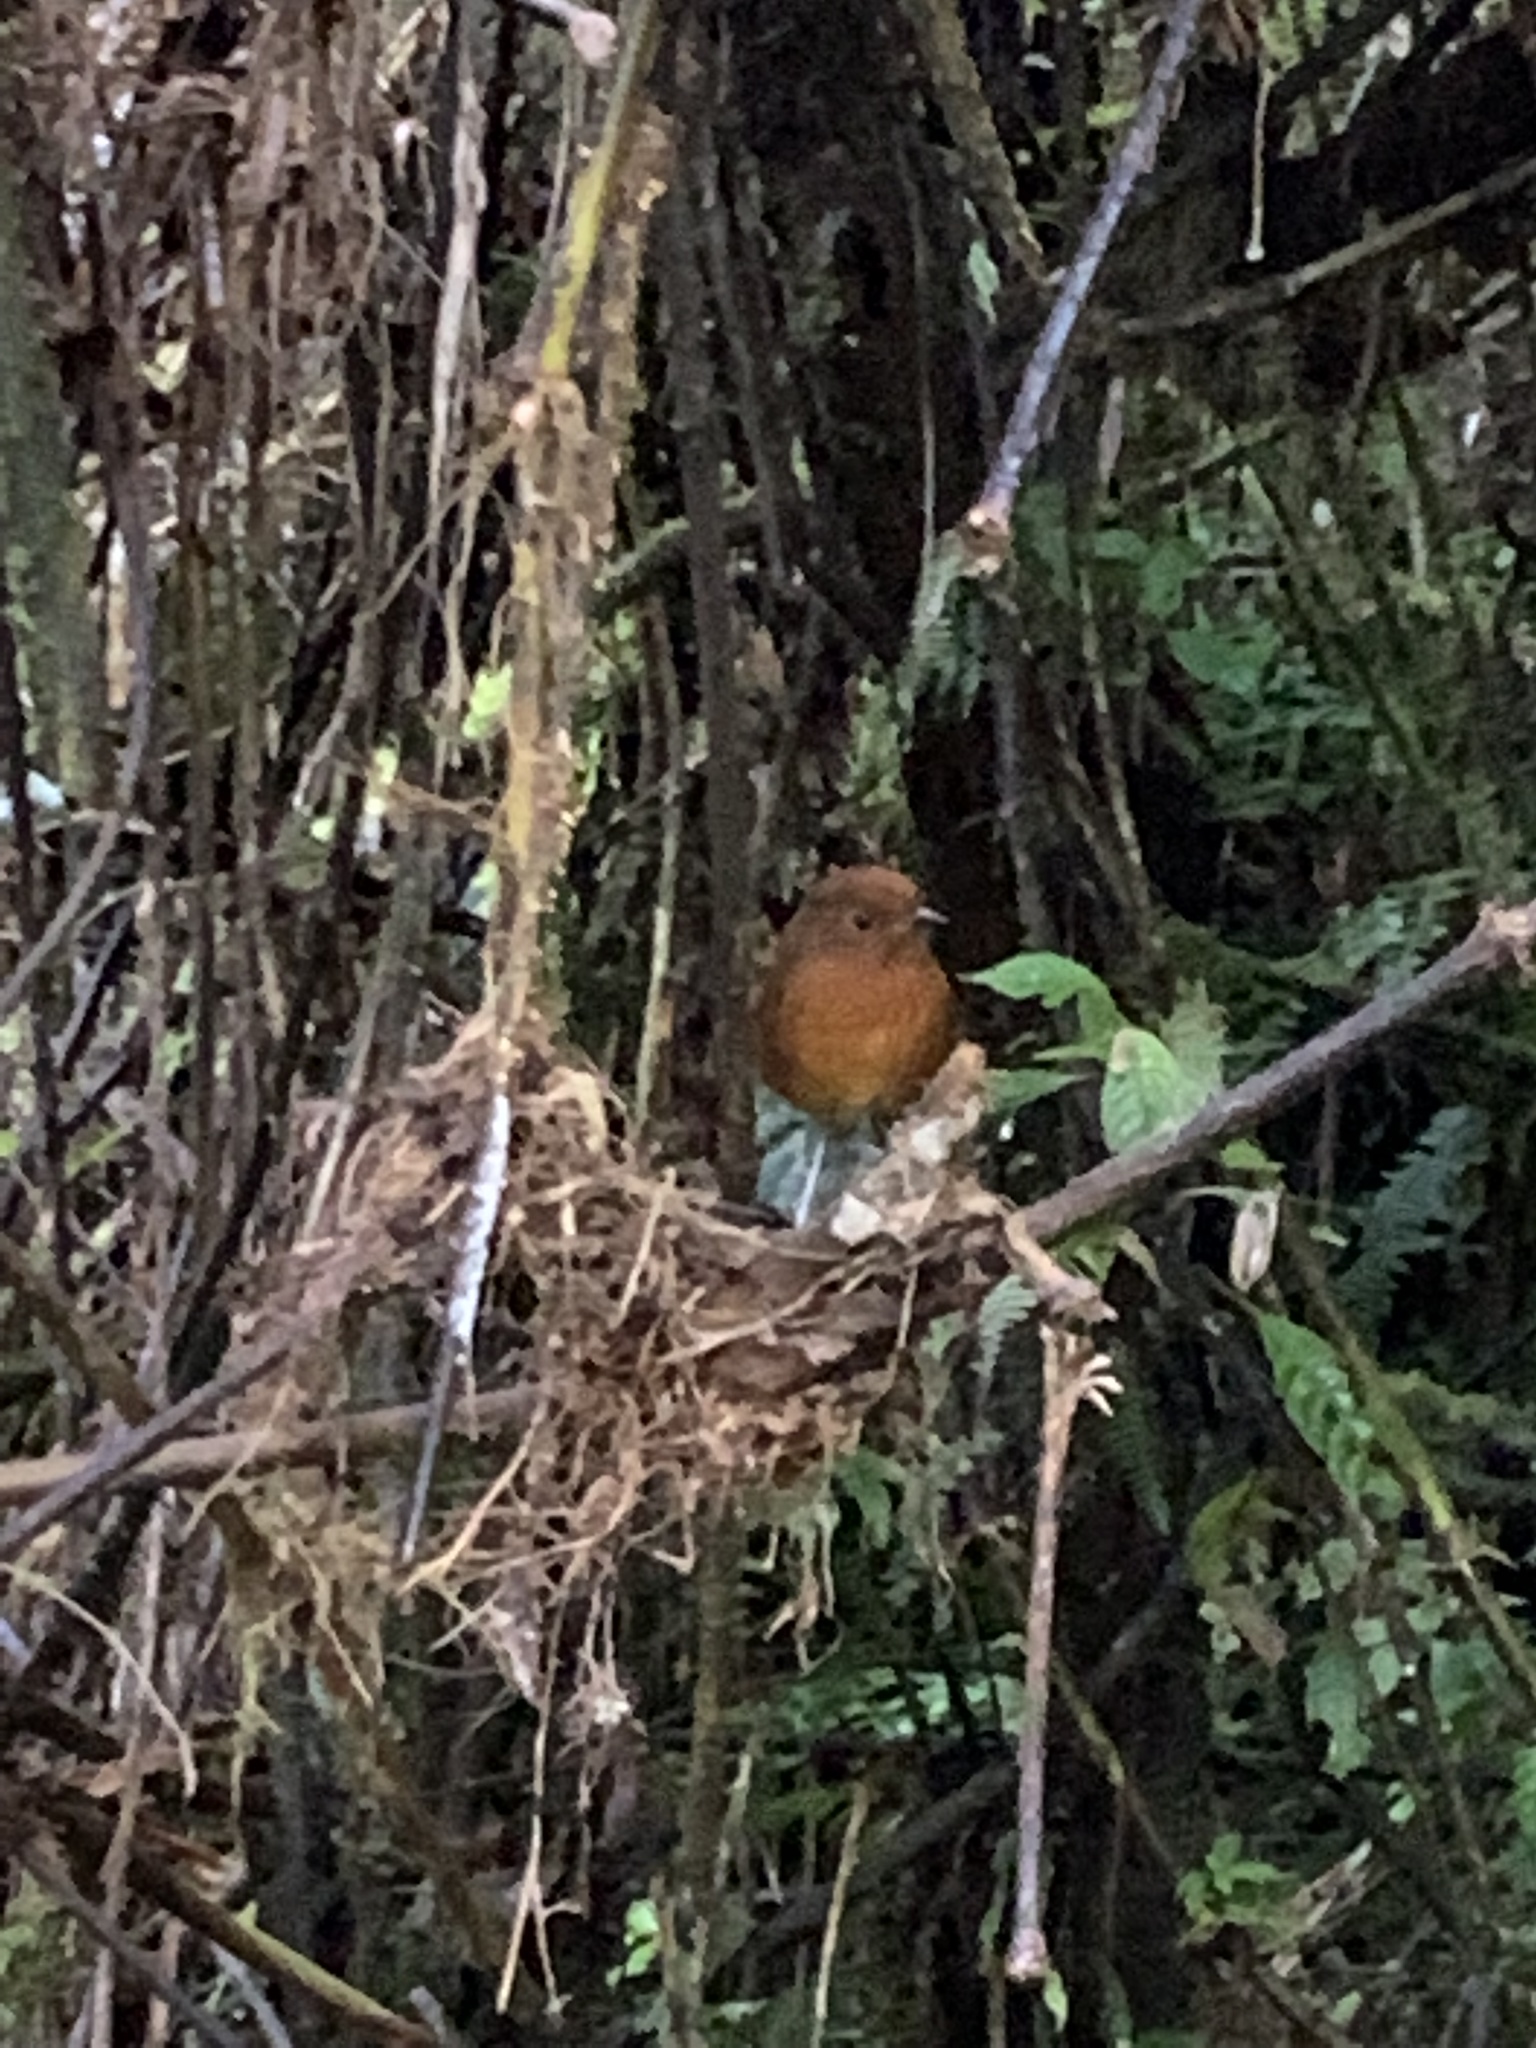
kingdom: Animalia
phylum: Chordata
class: Aves
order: Passeriformes
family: Grallariidae
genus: Grallaria
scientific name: Grallaria alvarezi
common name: Chami antpitta
